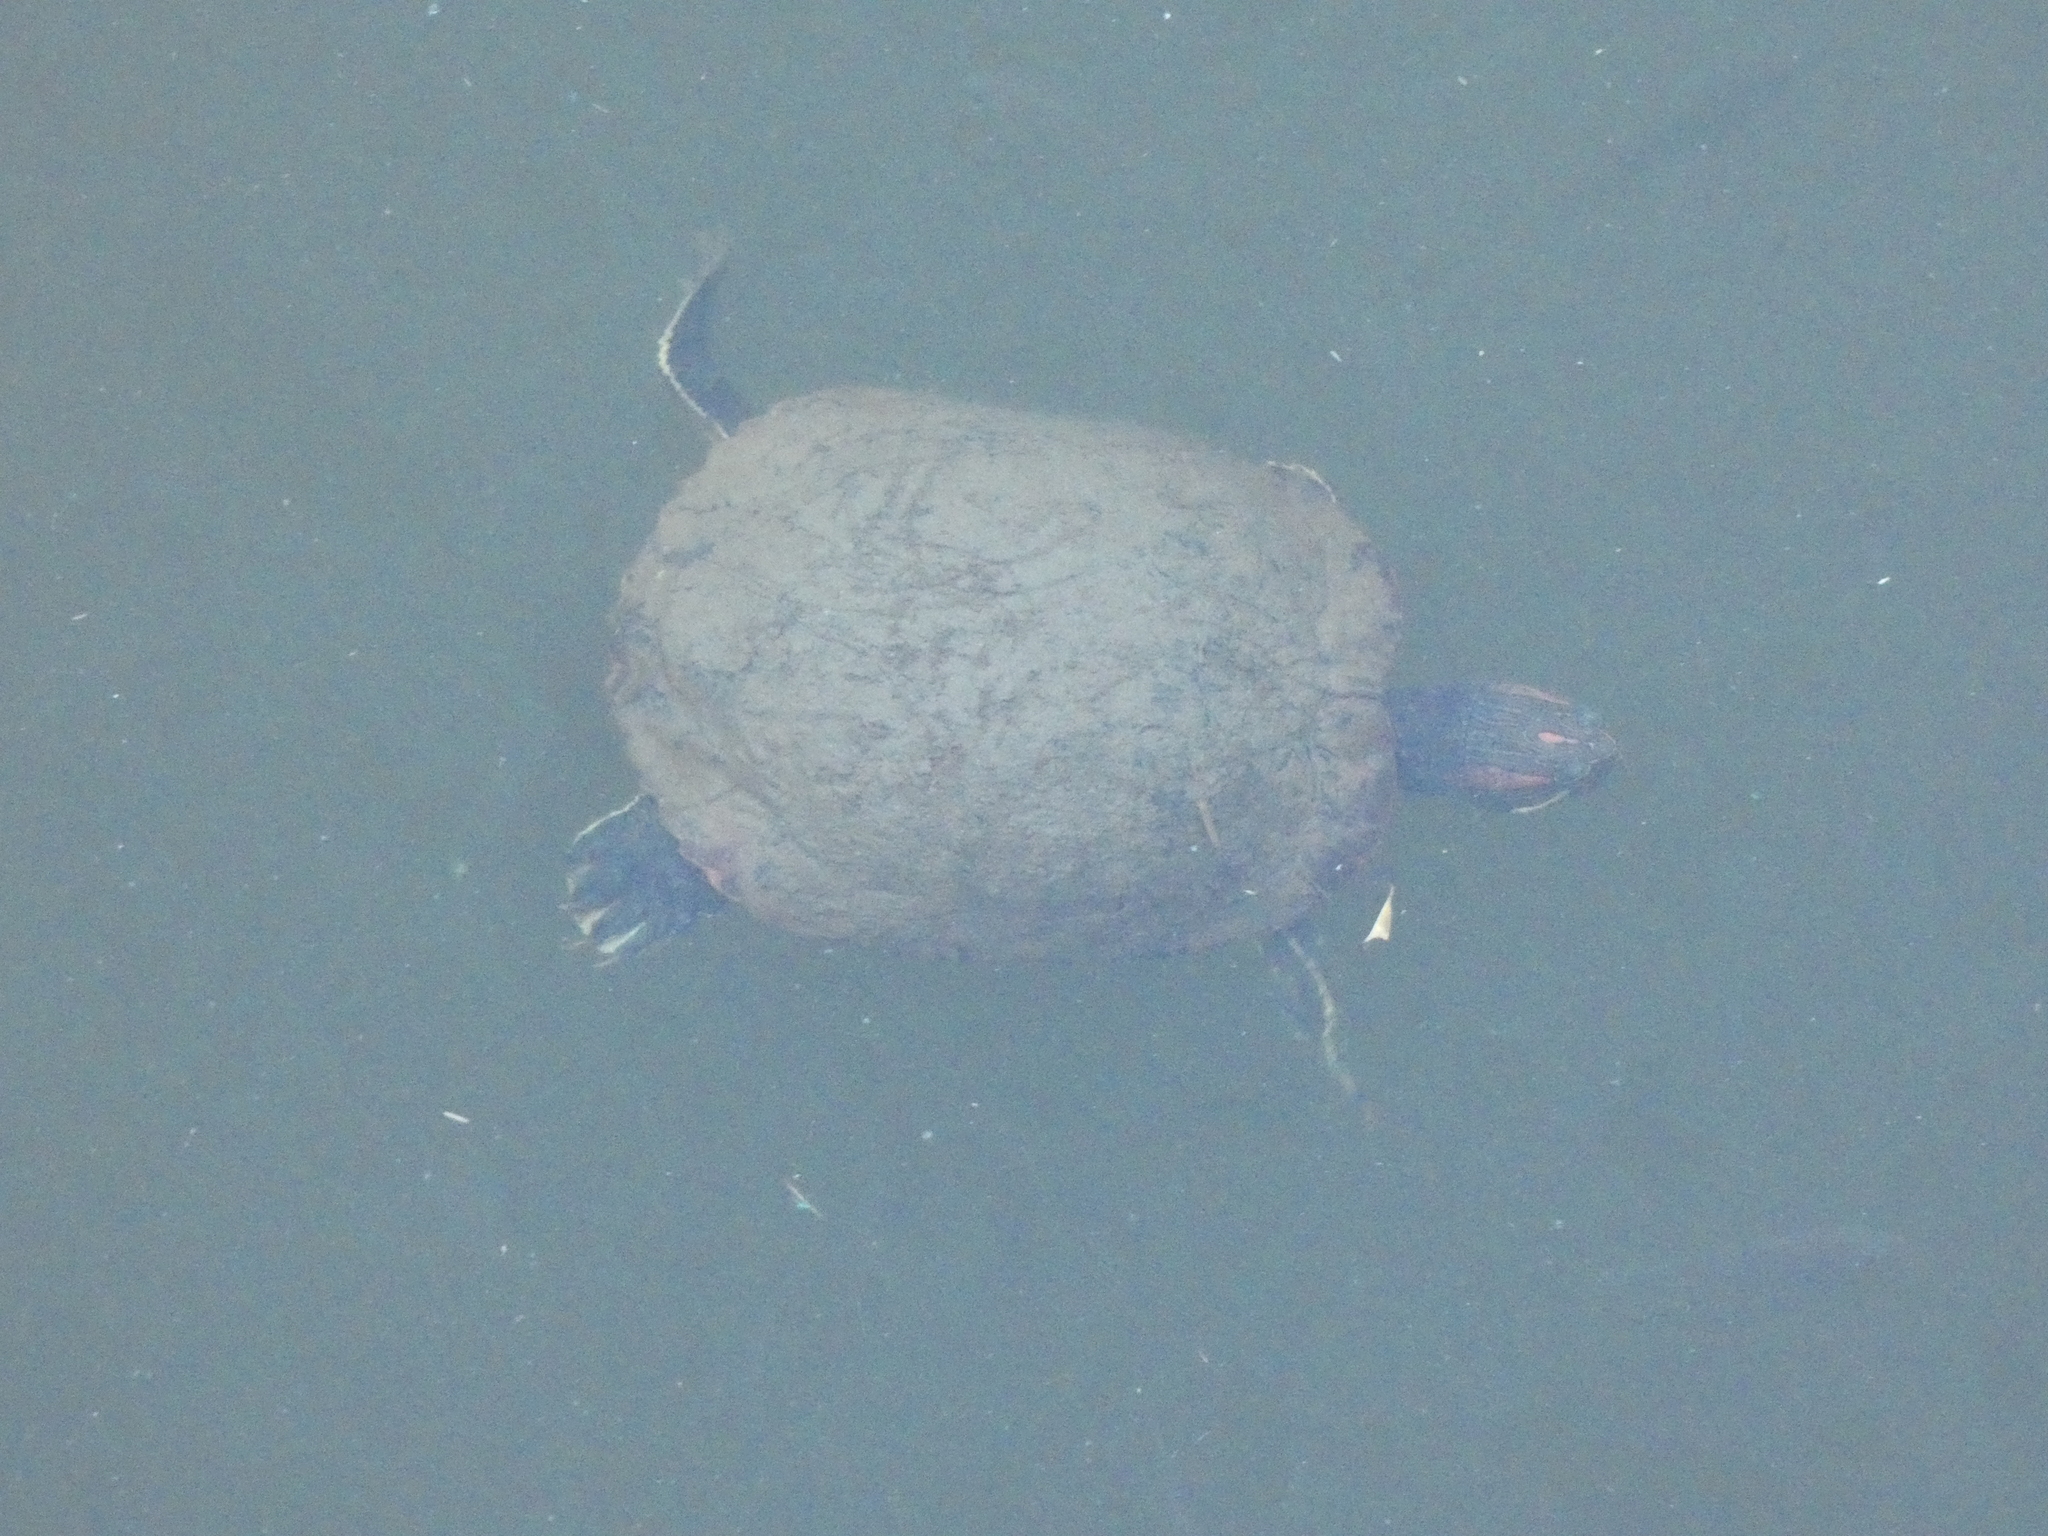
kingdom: Animalia
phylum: Chordata
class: Testudines
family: Emydidae
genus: Trachemys
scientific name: Trachemys scripta
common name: Slider
